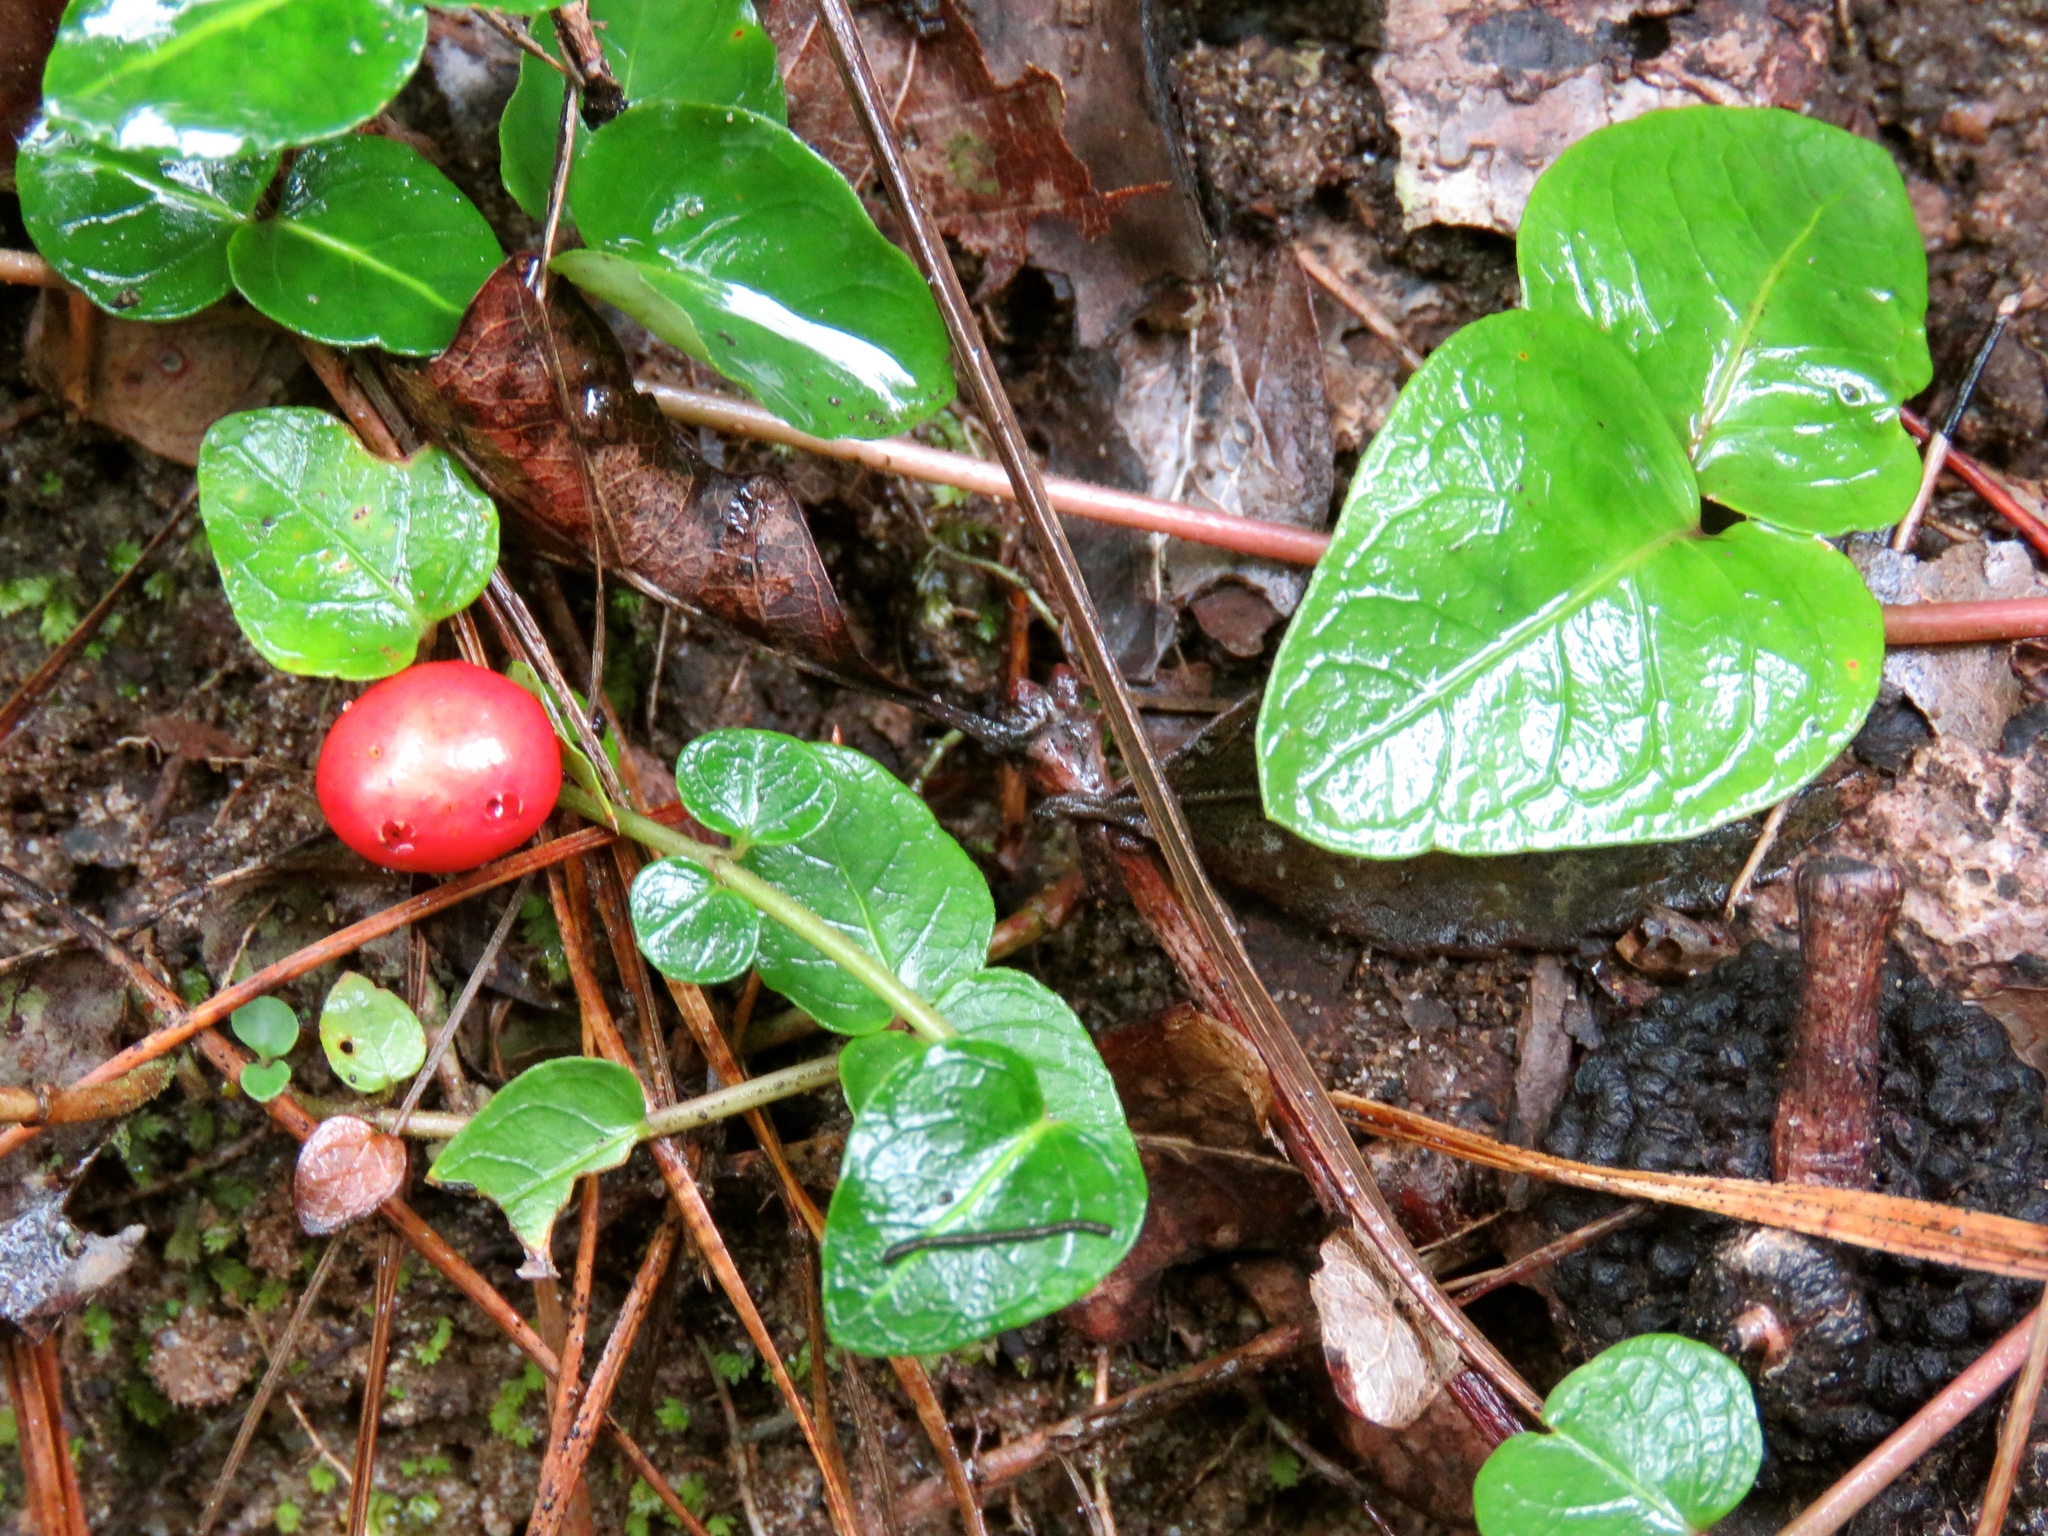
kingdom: Plantae
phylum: Tracheophyta
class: Magnoliopsida
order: Gentianales
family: Rubiaceae
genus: Mitchella
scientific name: Mitchella repens
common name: Partridge-berry
